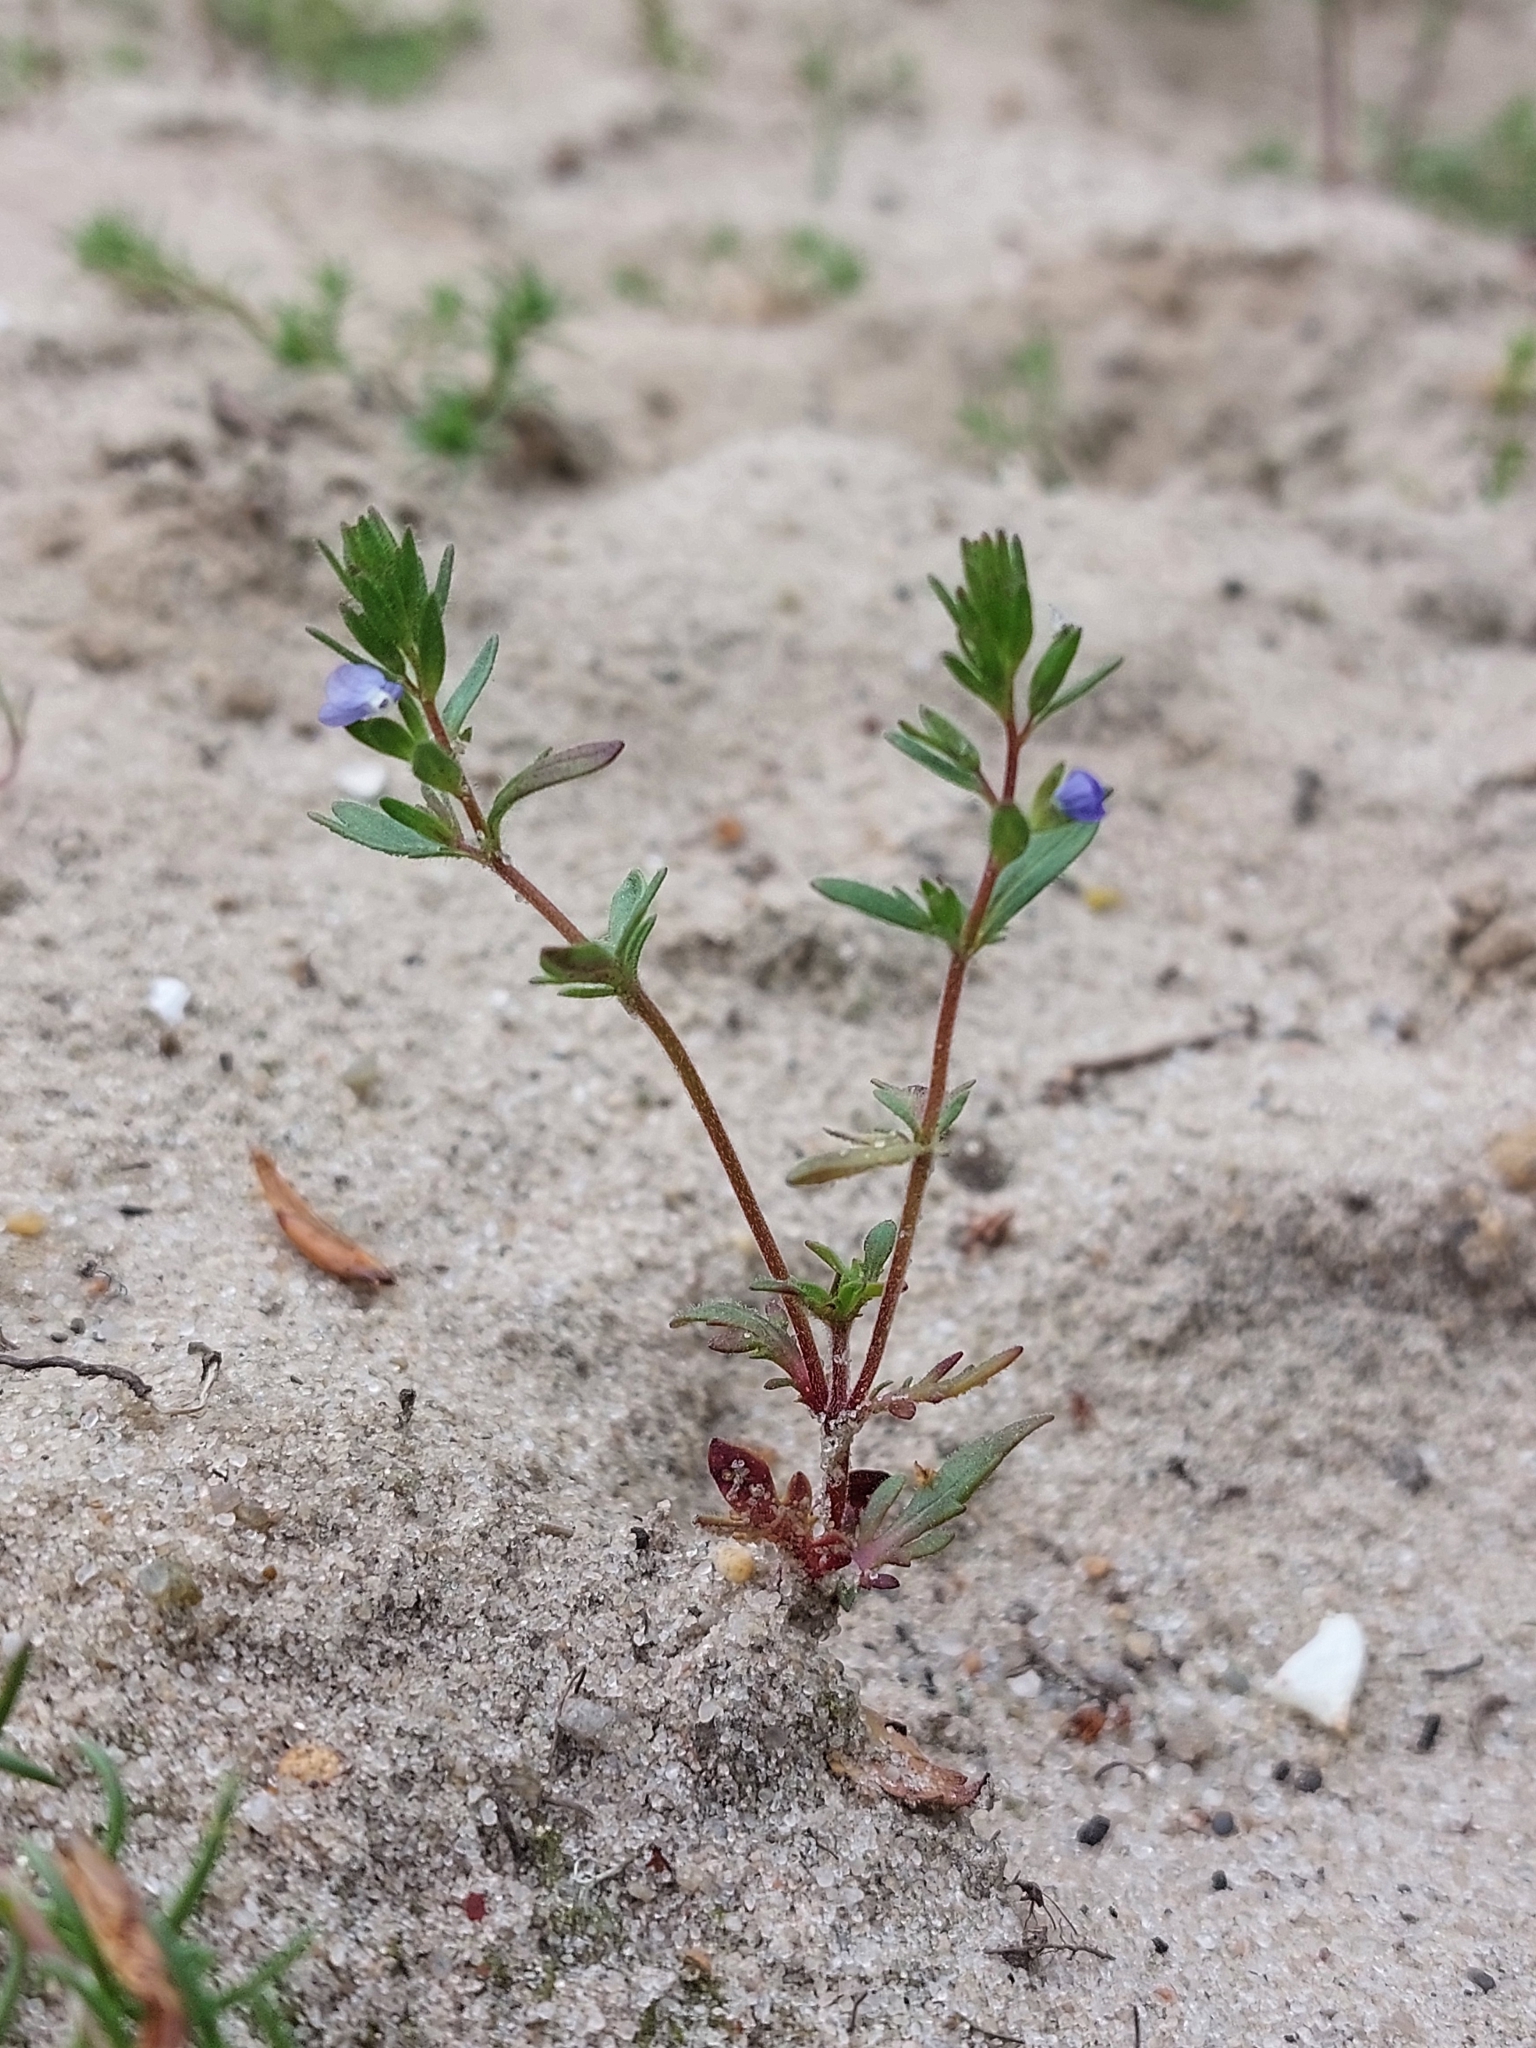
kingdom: Plantae
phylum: Tracheophyta
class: Magnoliopsida
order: Lamiales
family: Plantaginaceae
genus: Veronica
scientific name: Veronica verna
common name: Spring speedwell
